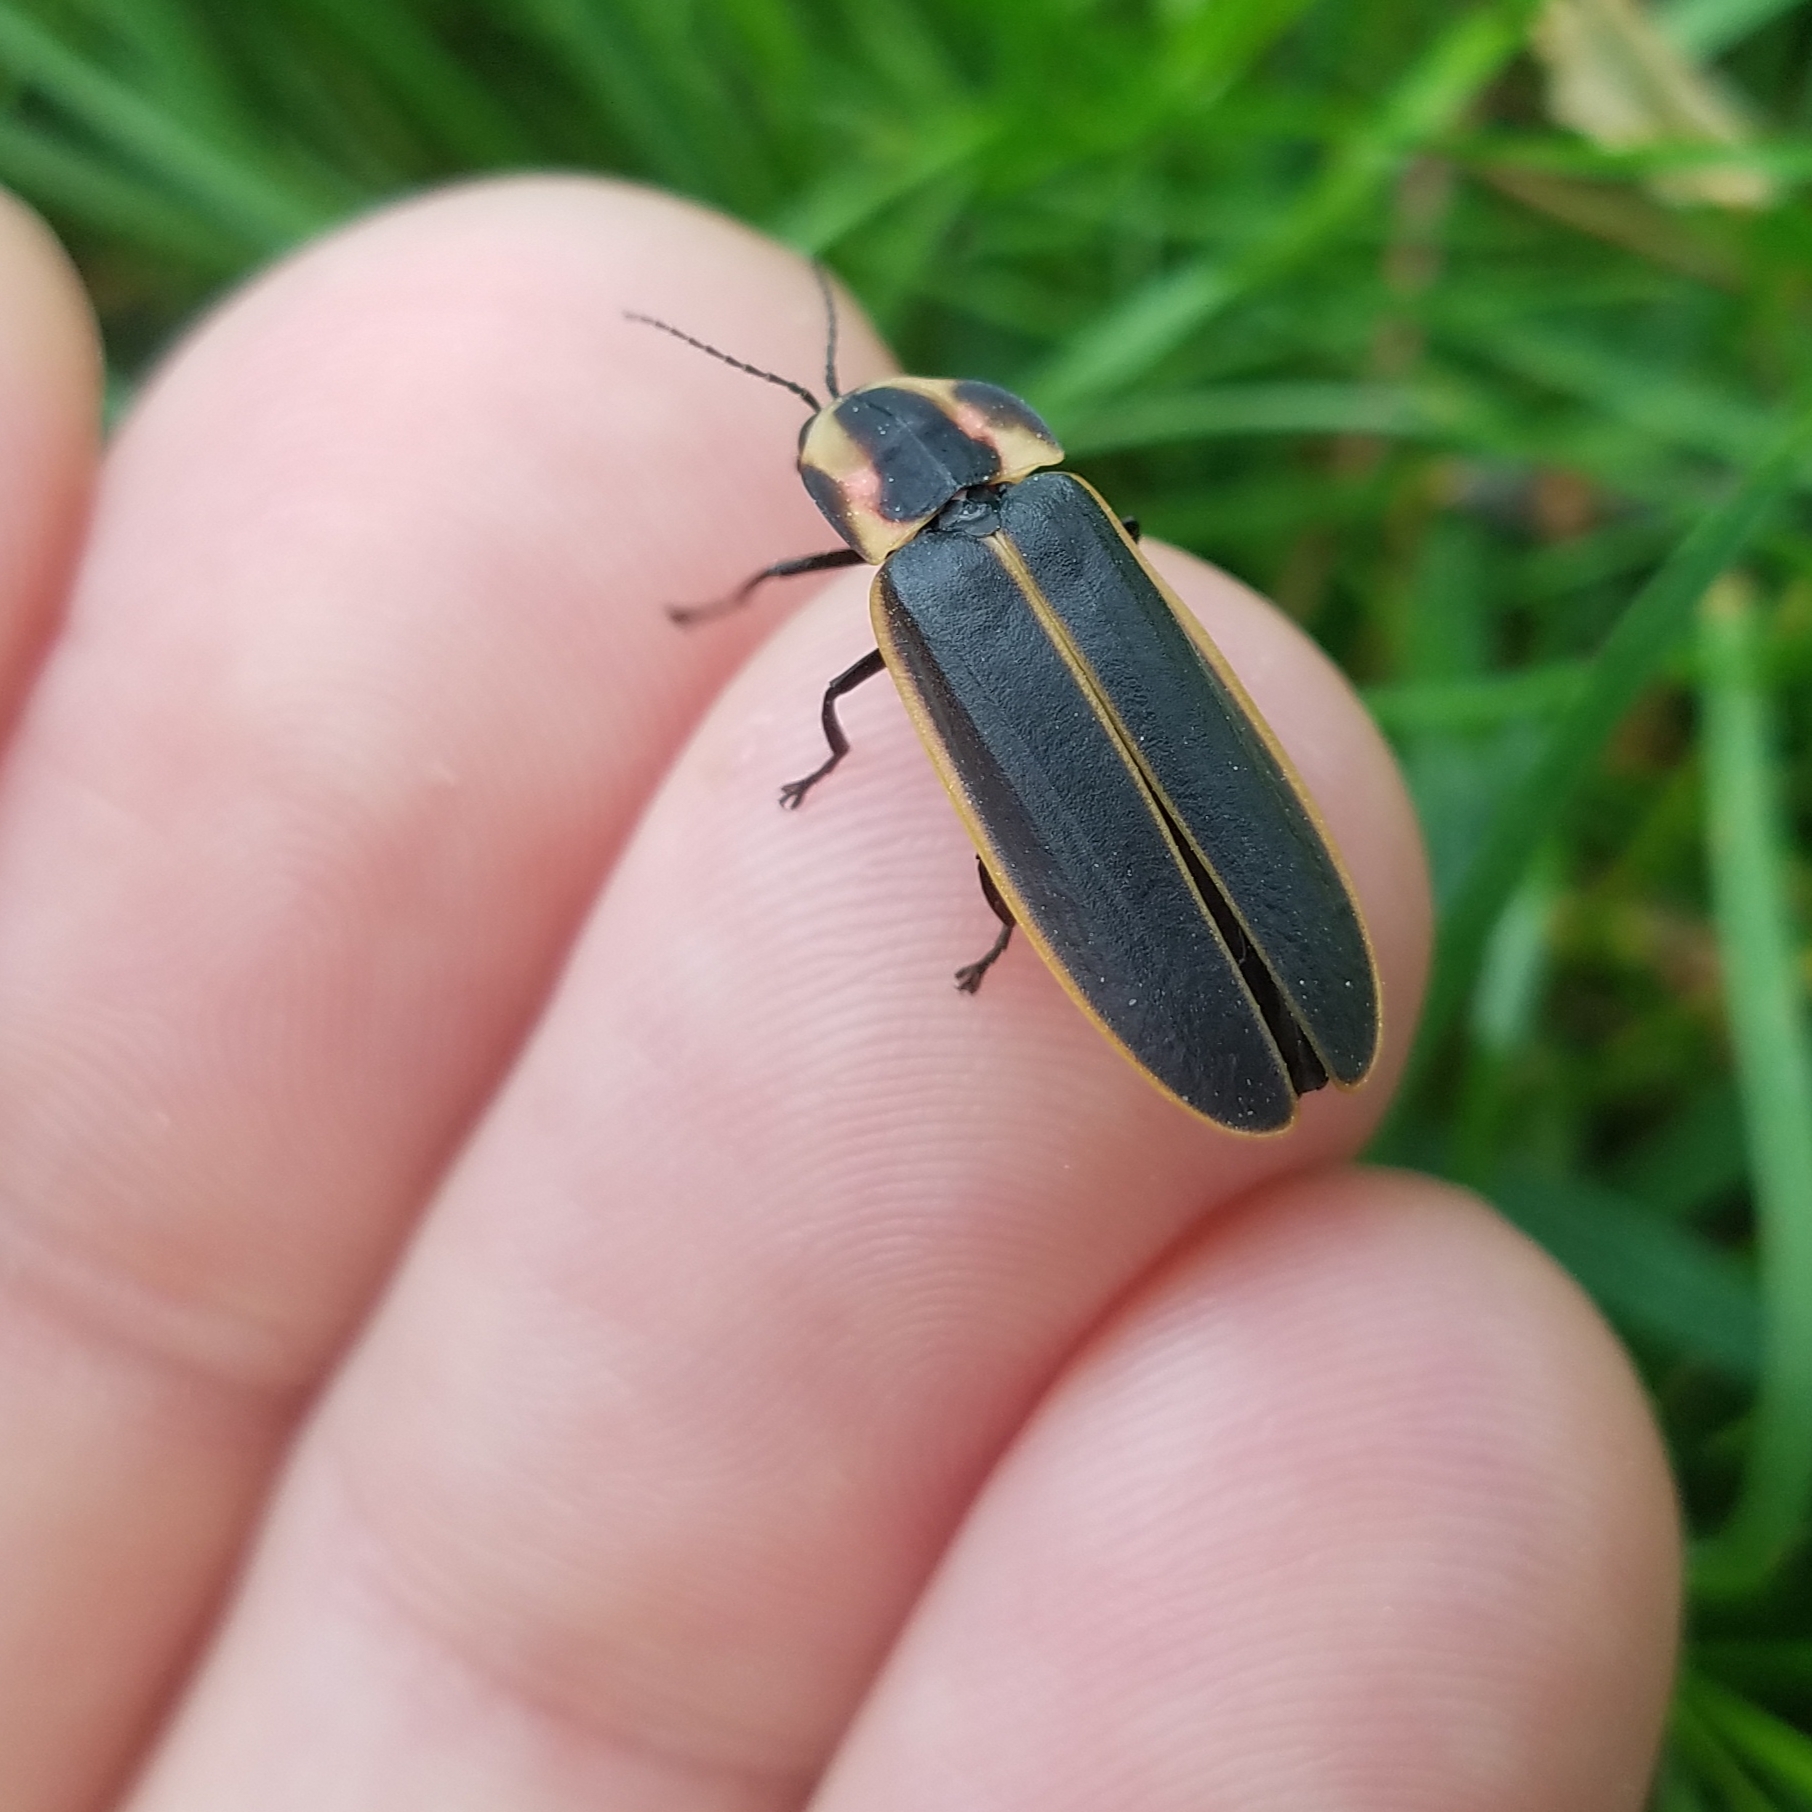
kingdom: Animalia
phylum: Arthropoda
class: Insecta
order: Coleoptera
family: Lampyridae
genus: Pyractomena
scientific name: Pyractomena borealis
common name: Northern firefly
